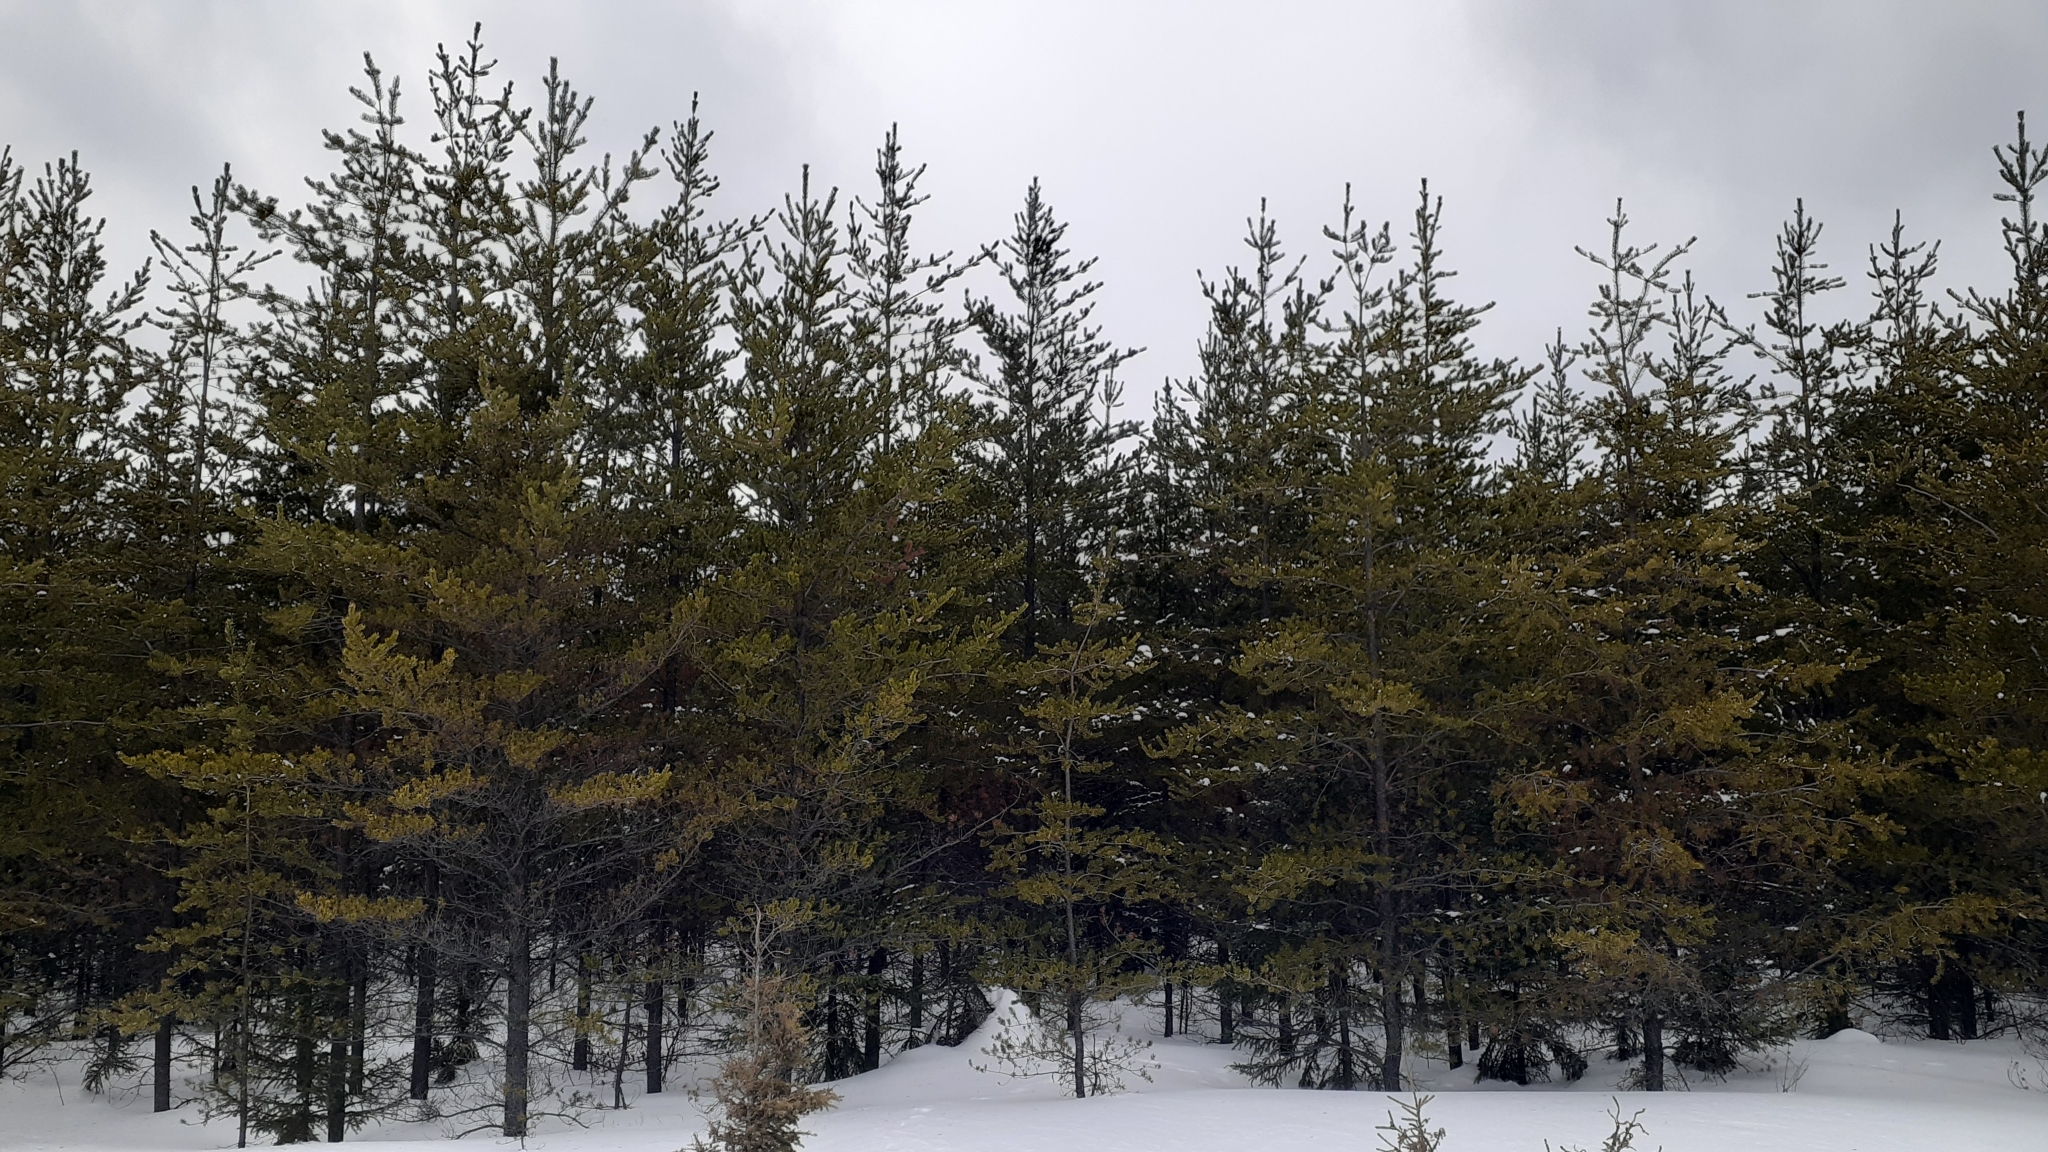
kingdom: Plantae
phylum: Tracheophyta
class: Pinopsida
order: Pinales
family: Pinaceae
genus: Pinus
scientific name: Pinus banksiana
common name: Jack pine
